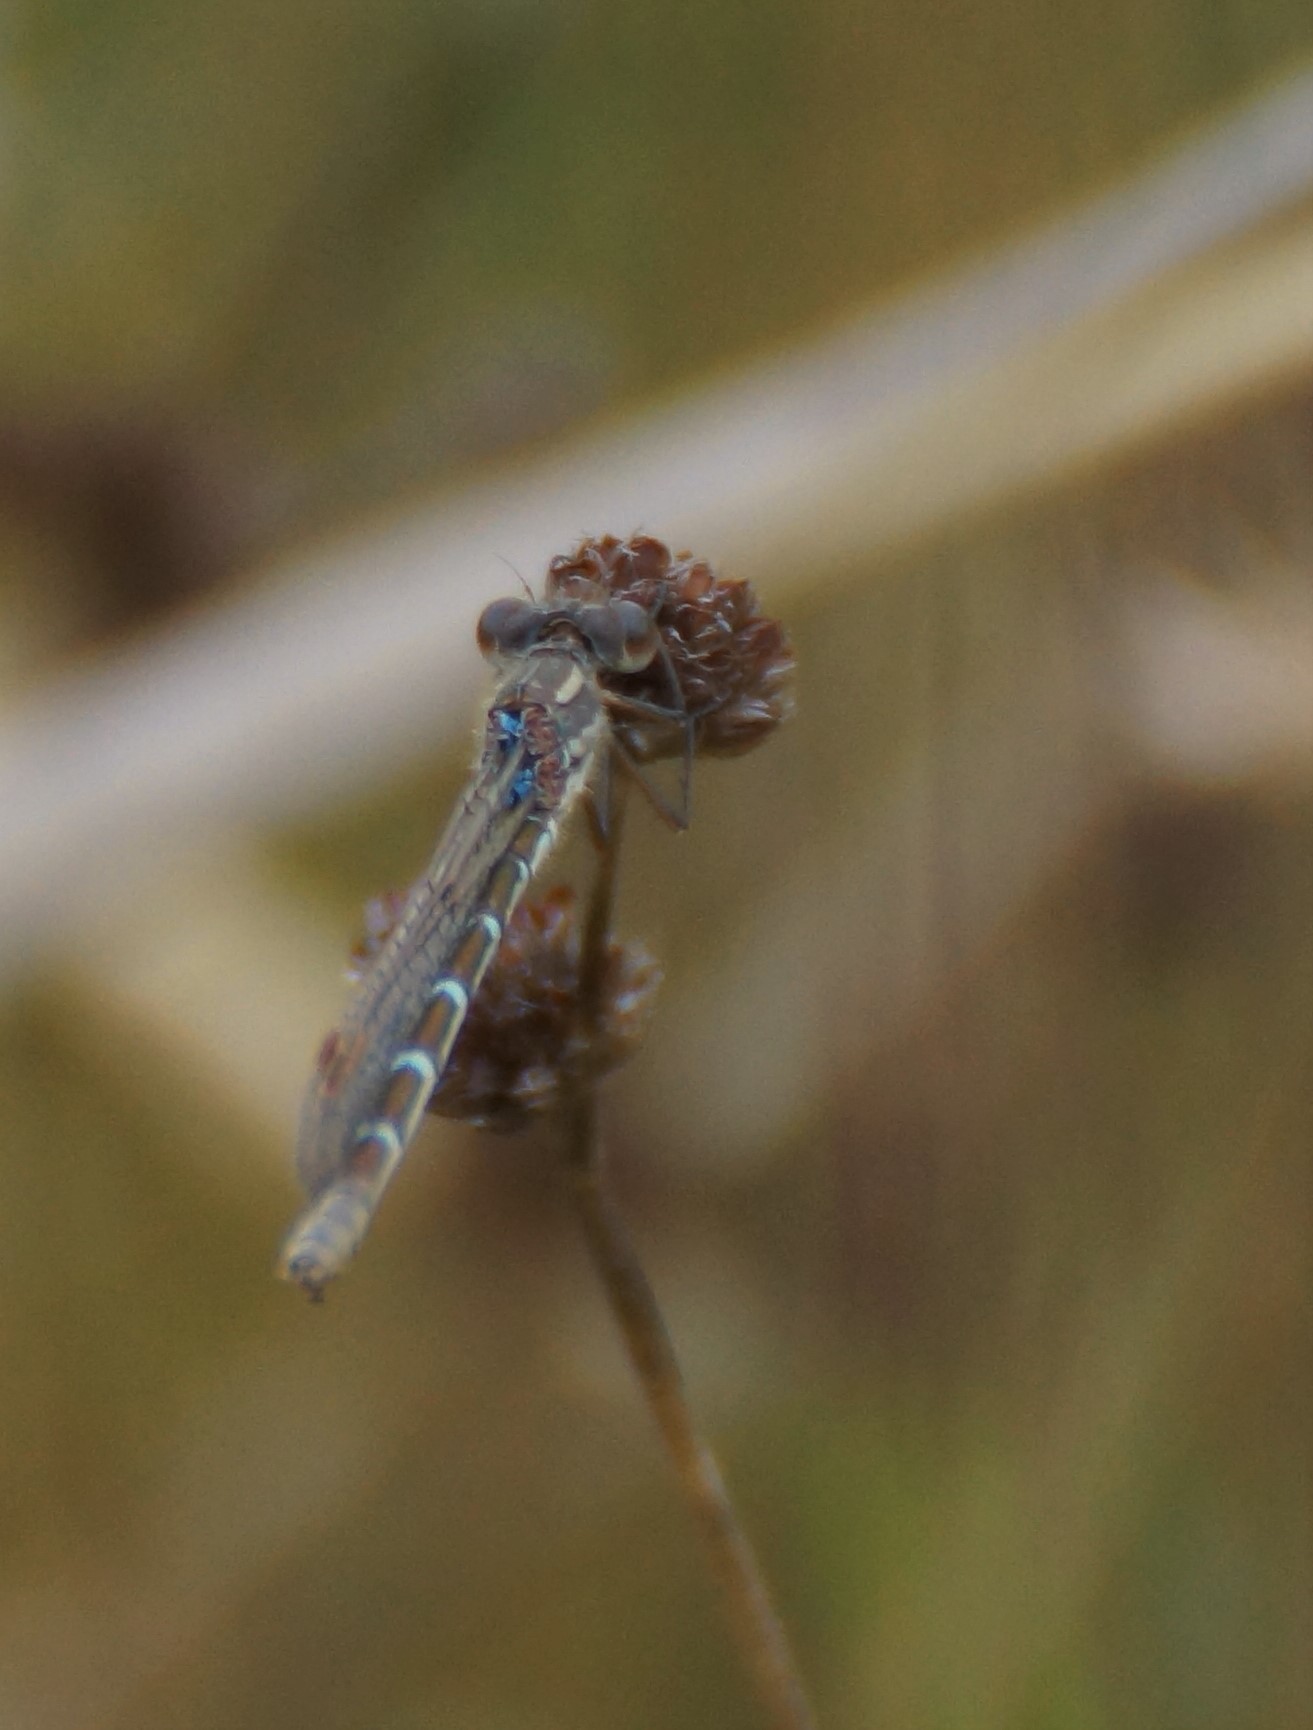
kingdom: Animalia
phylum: Arthropoda
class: Insecta
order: Odonata
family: Lestidae
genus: Austrolestes
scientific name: Austrolestes annulosus
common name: Blue ringtail
